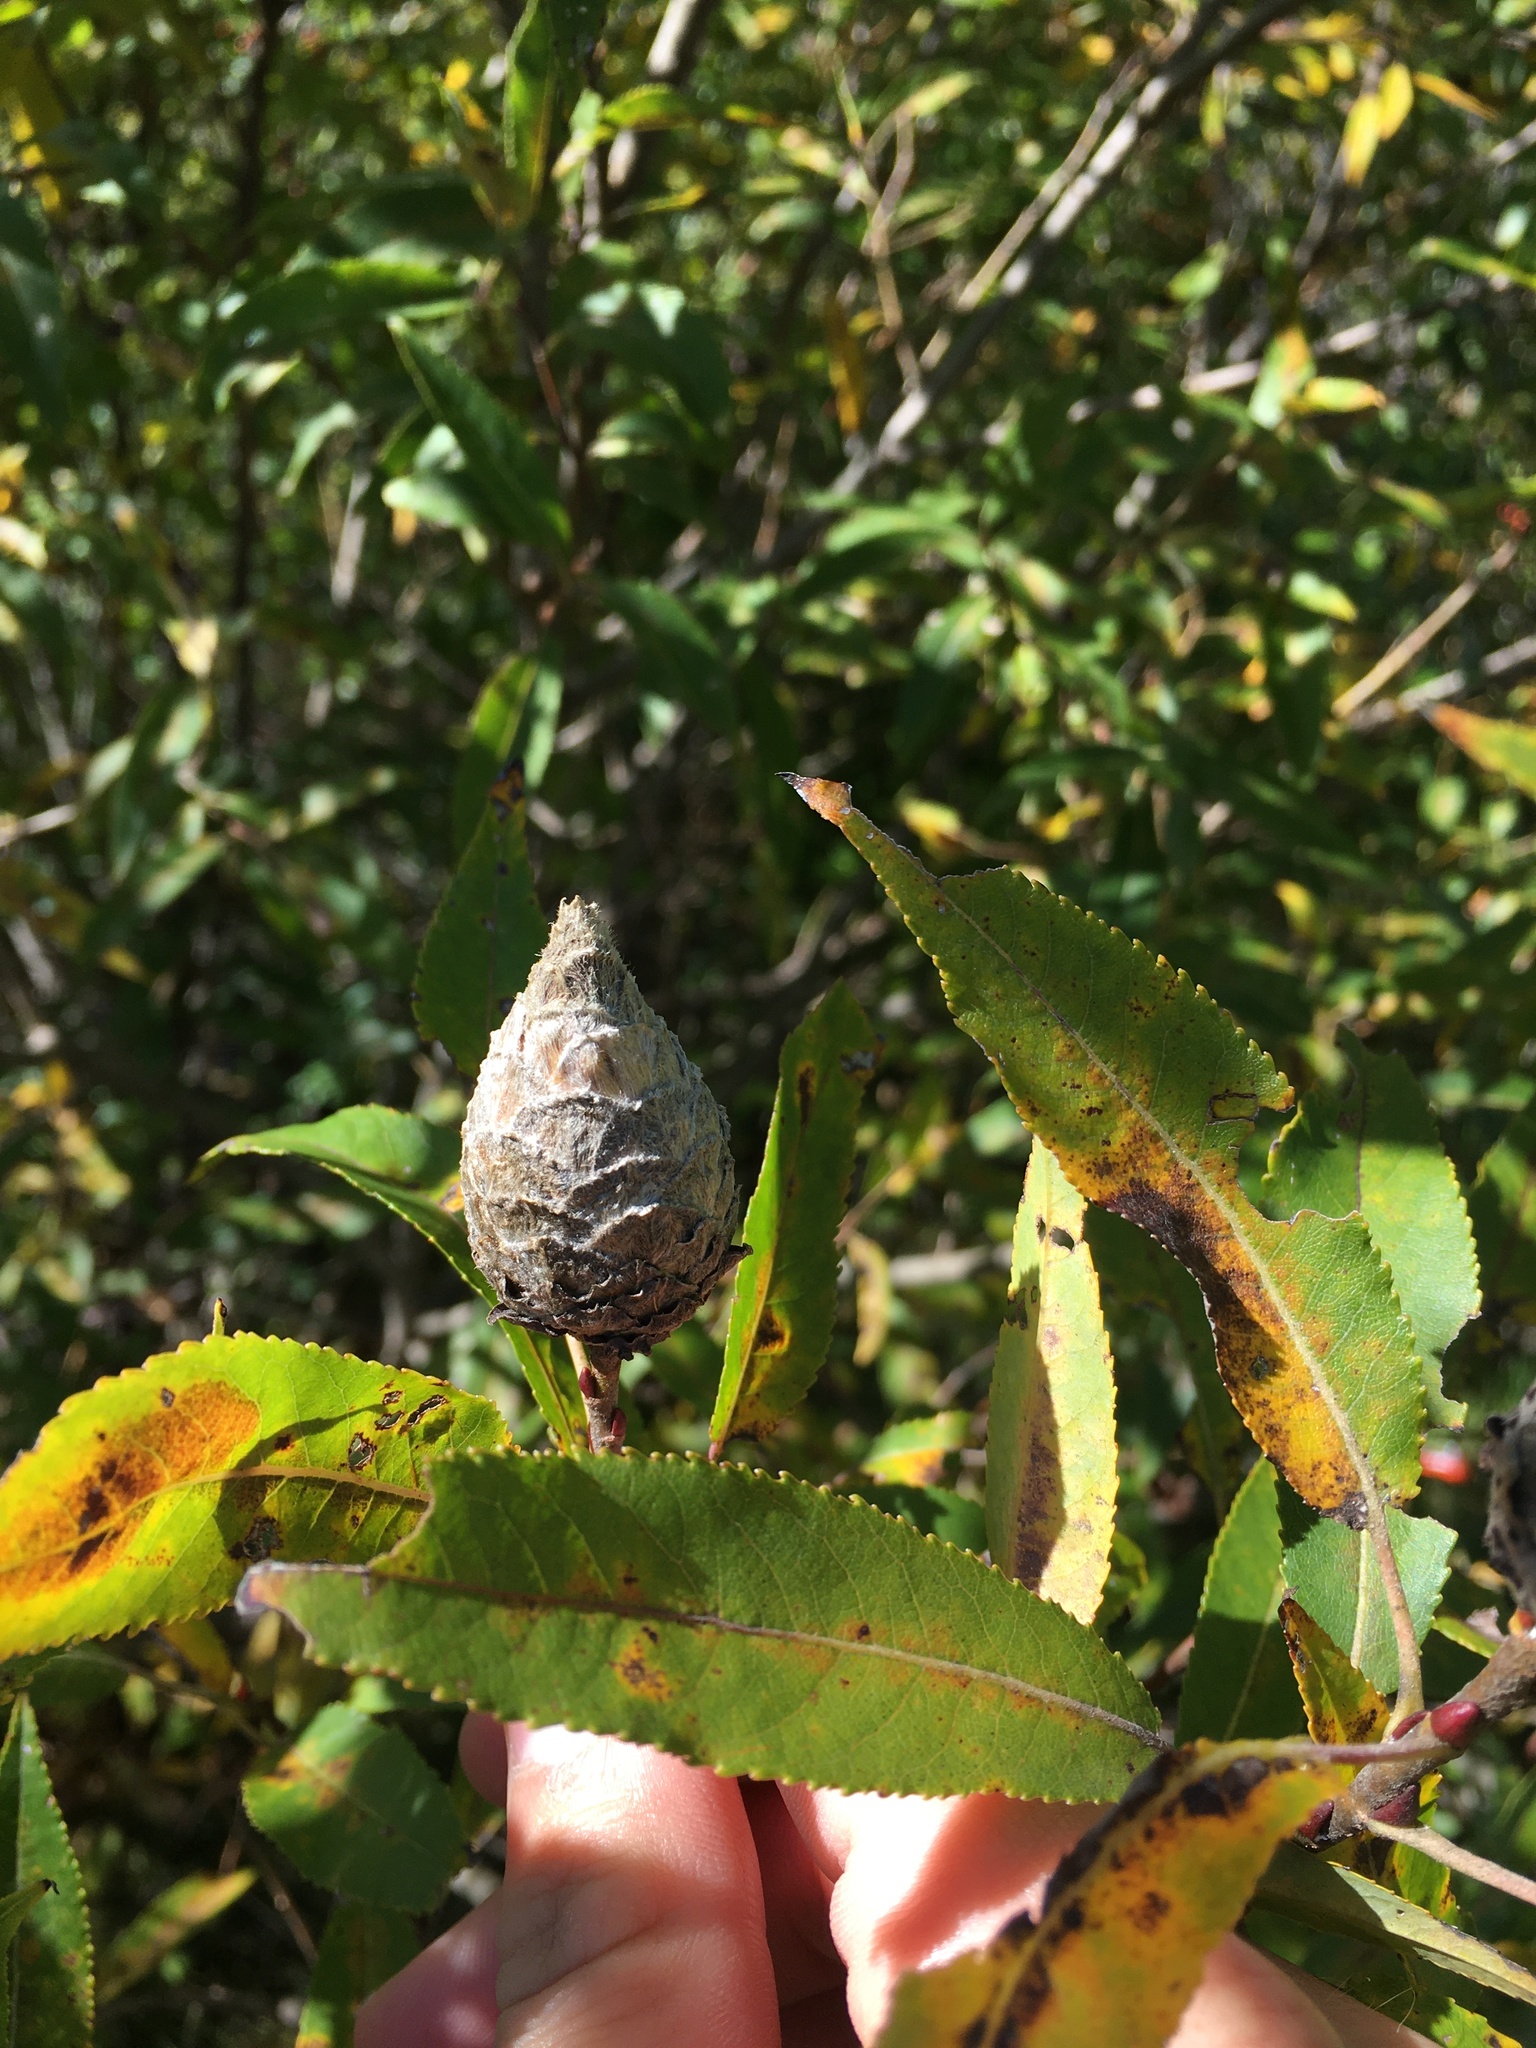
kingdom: Animalia
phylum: Arthropoda
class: Insecta
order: Diptera
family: Cecidomyiidae
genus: Rabdophaga
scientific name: Rabdophaga strobiloides
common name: Willow pinecone gall midge
